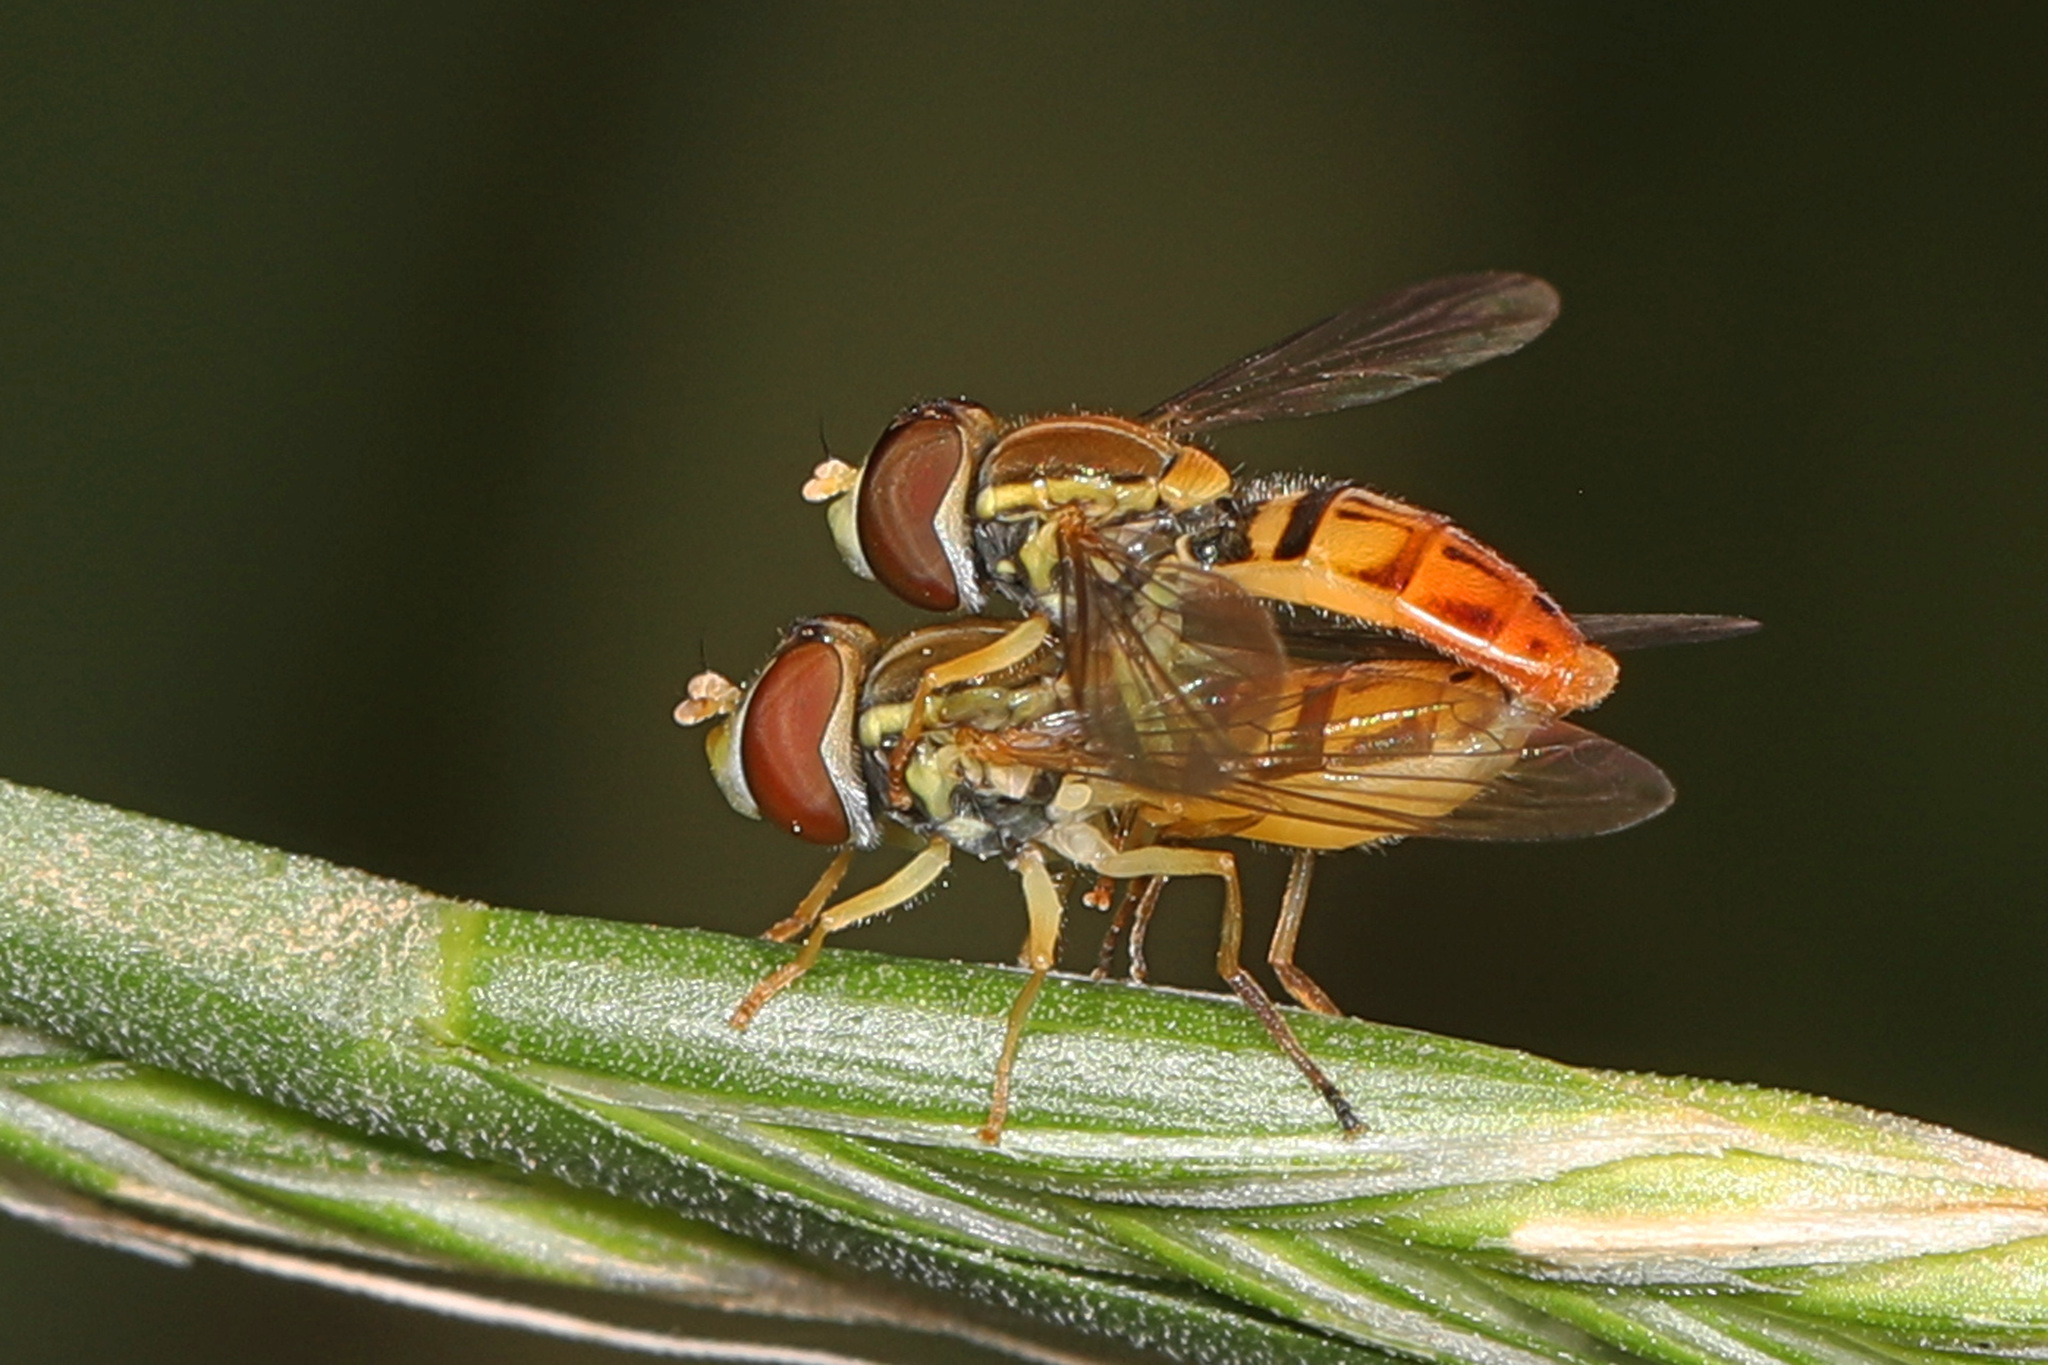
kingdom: Animalia
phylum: Arthropoda
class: Insecta
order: Diptera
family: Syrphidae
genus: Toxomerus
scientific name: Toxomerus marginatus
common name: Syrphid fly
